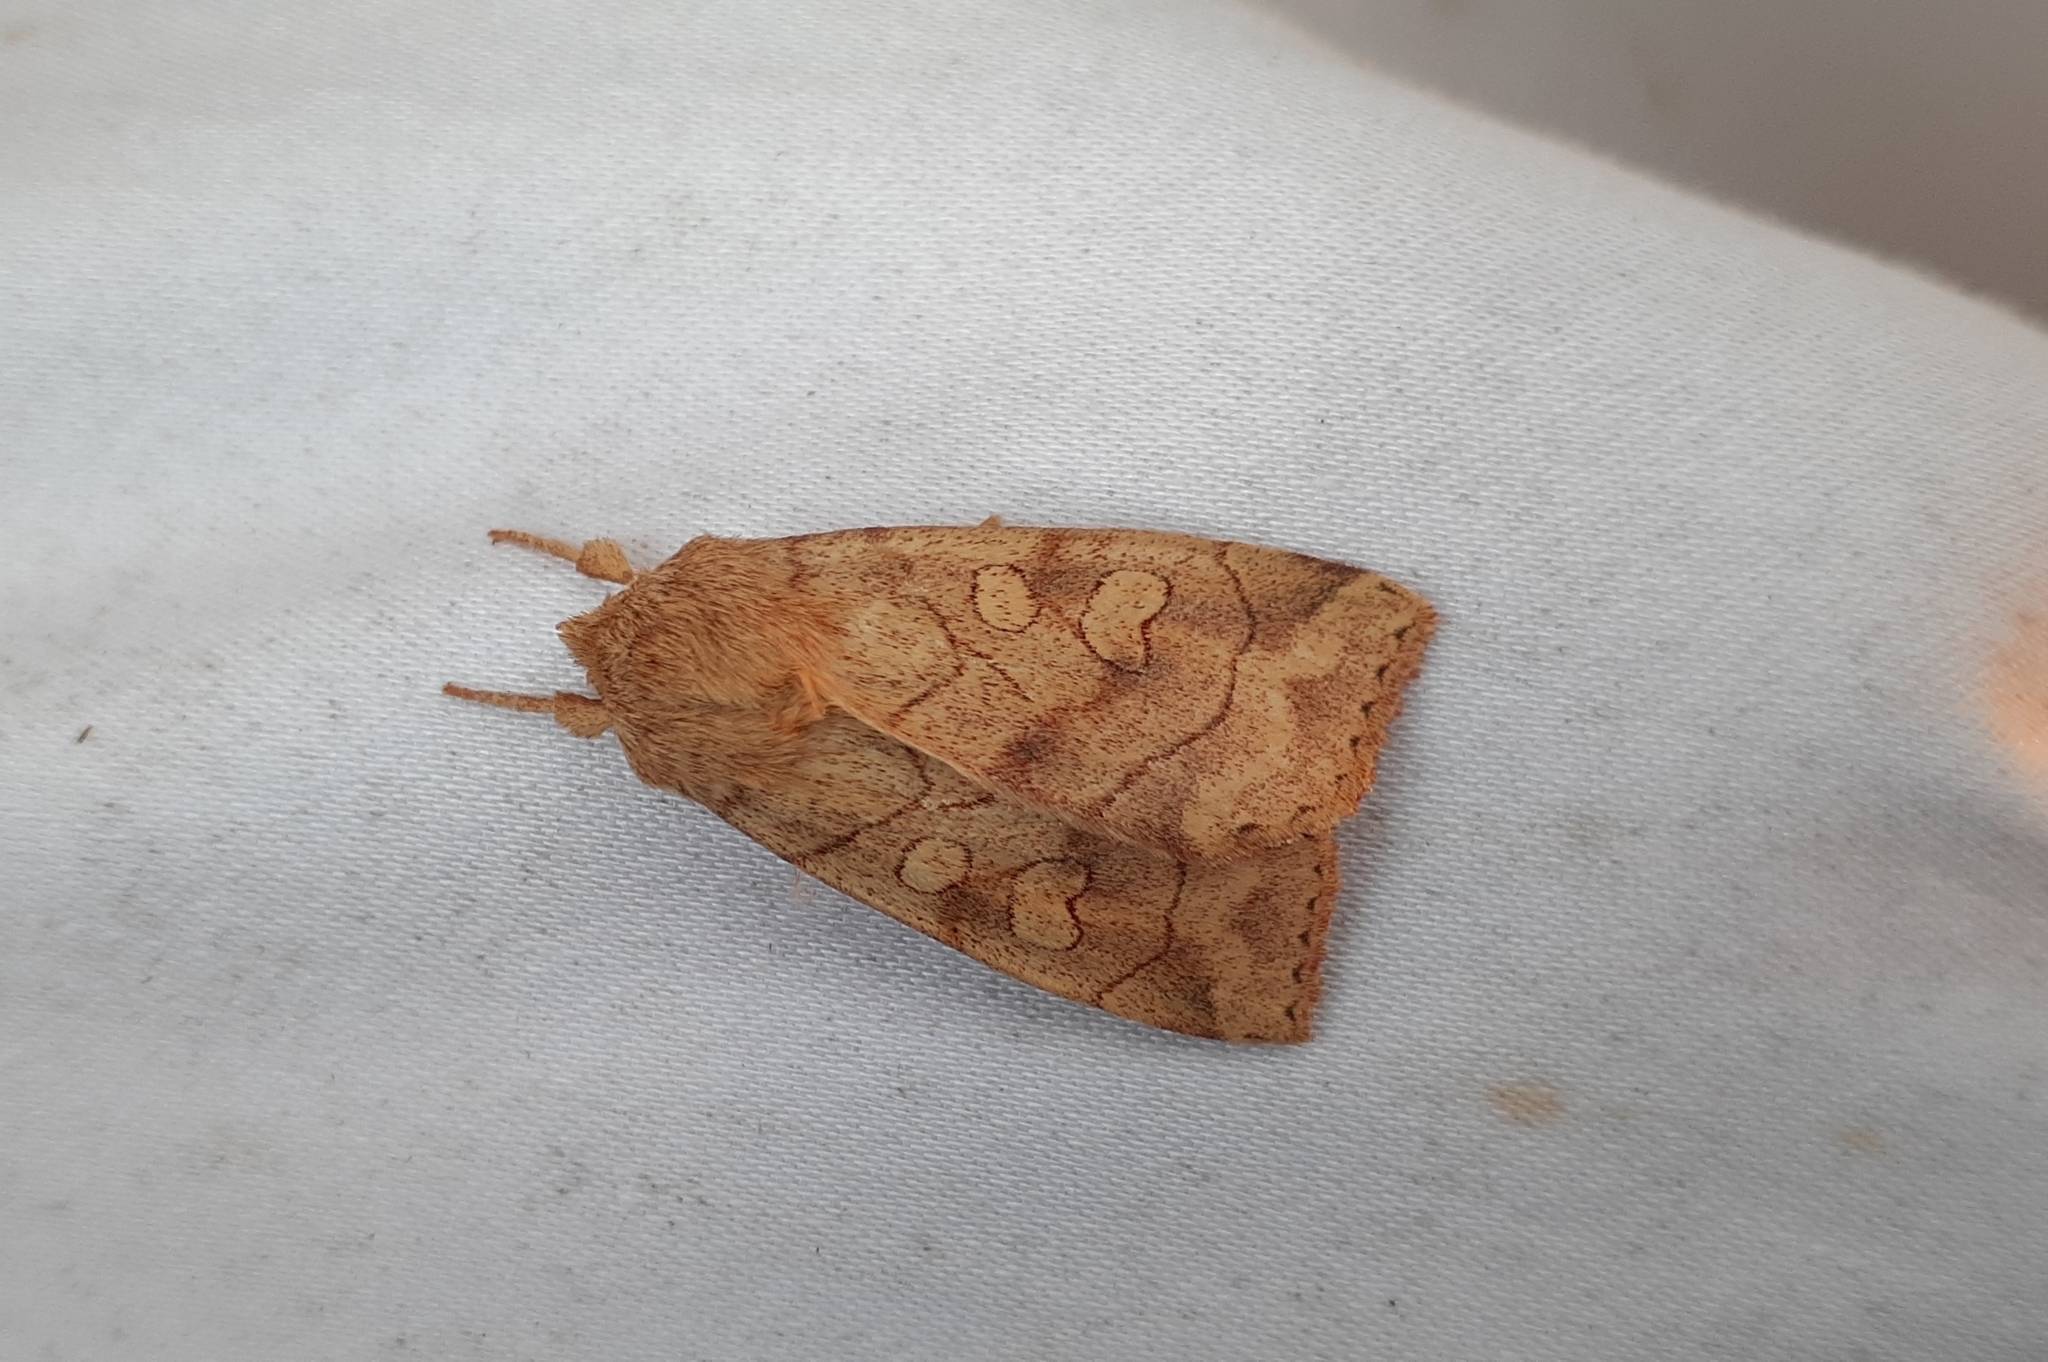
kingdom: Animalia
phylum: Arthropoda
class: Insecta
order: Lepidoptera
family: Noctuidae
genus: Enargia
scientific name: Enargia decolor
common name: Aspen twoleaf tier moth
